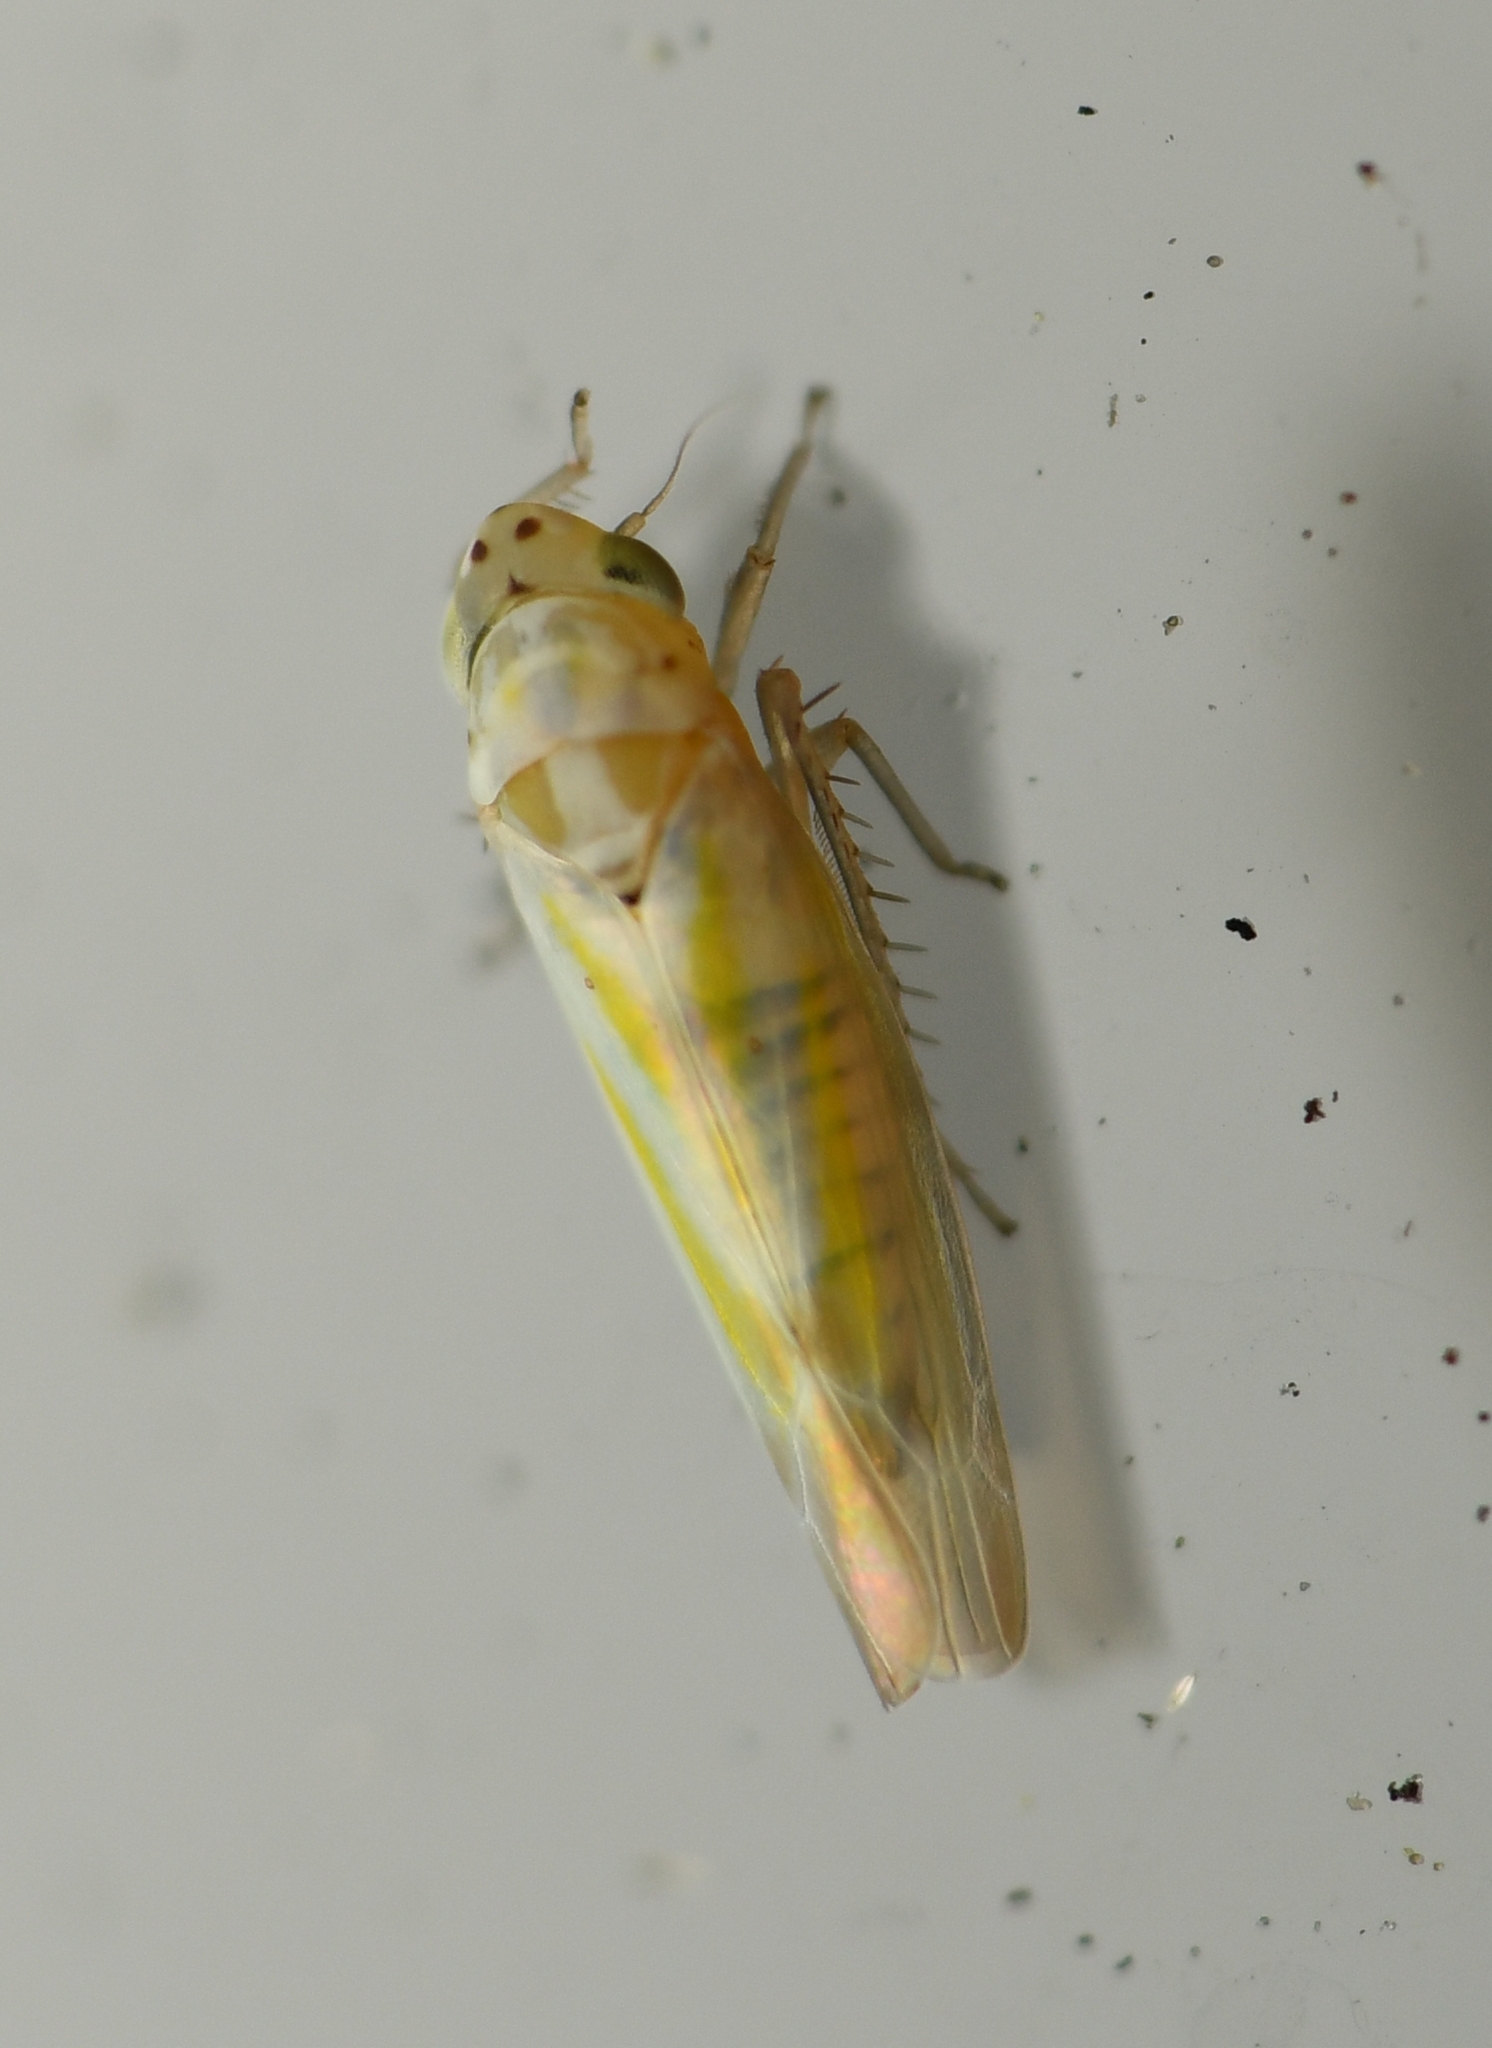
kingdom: Animalia
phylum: Arthropoda
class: Insecta
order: Hemiptera
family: Cicadellidae
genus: Zyginama
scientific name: Zyginama tripunctata
